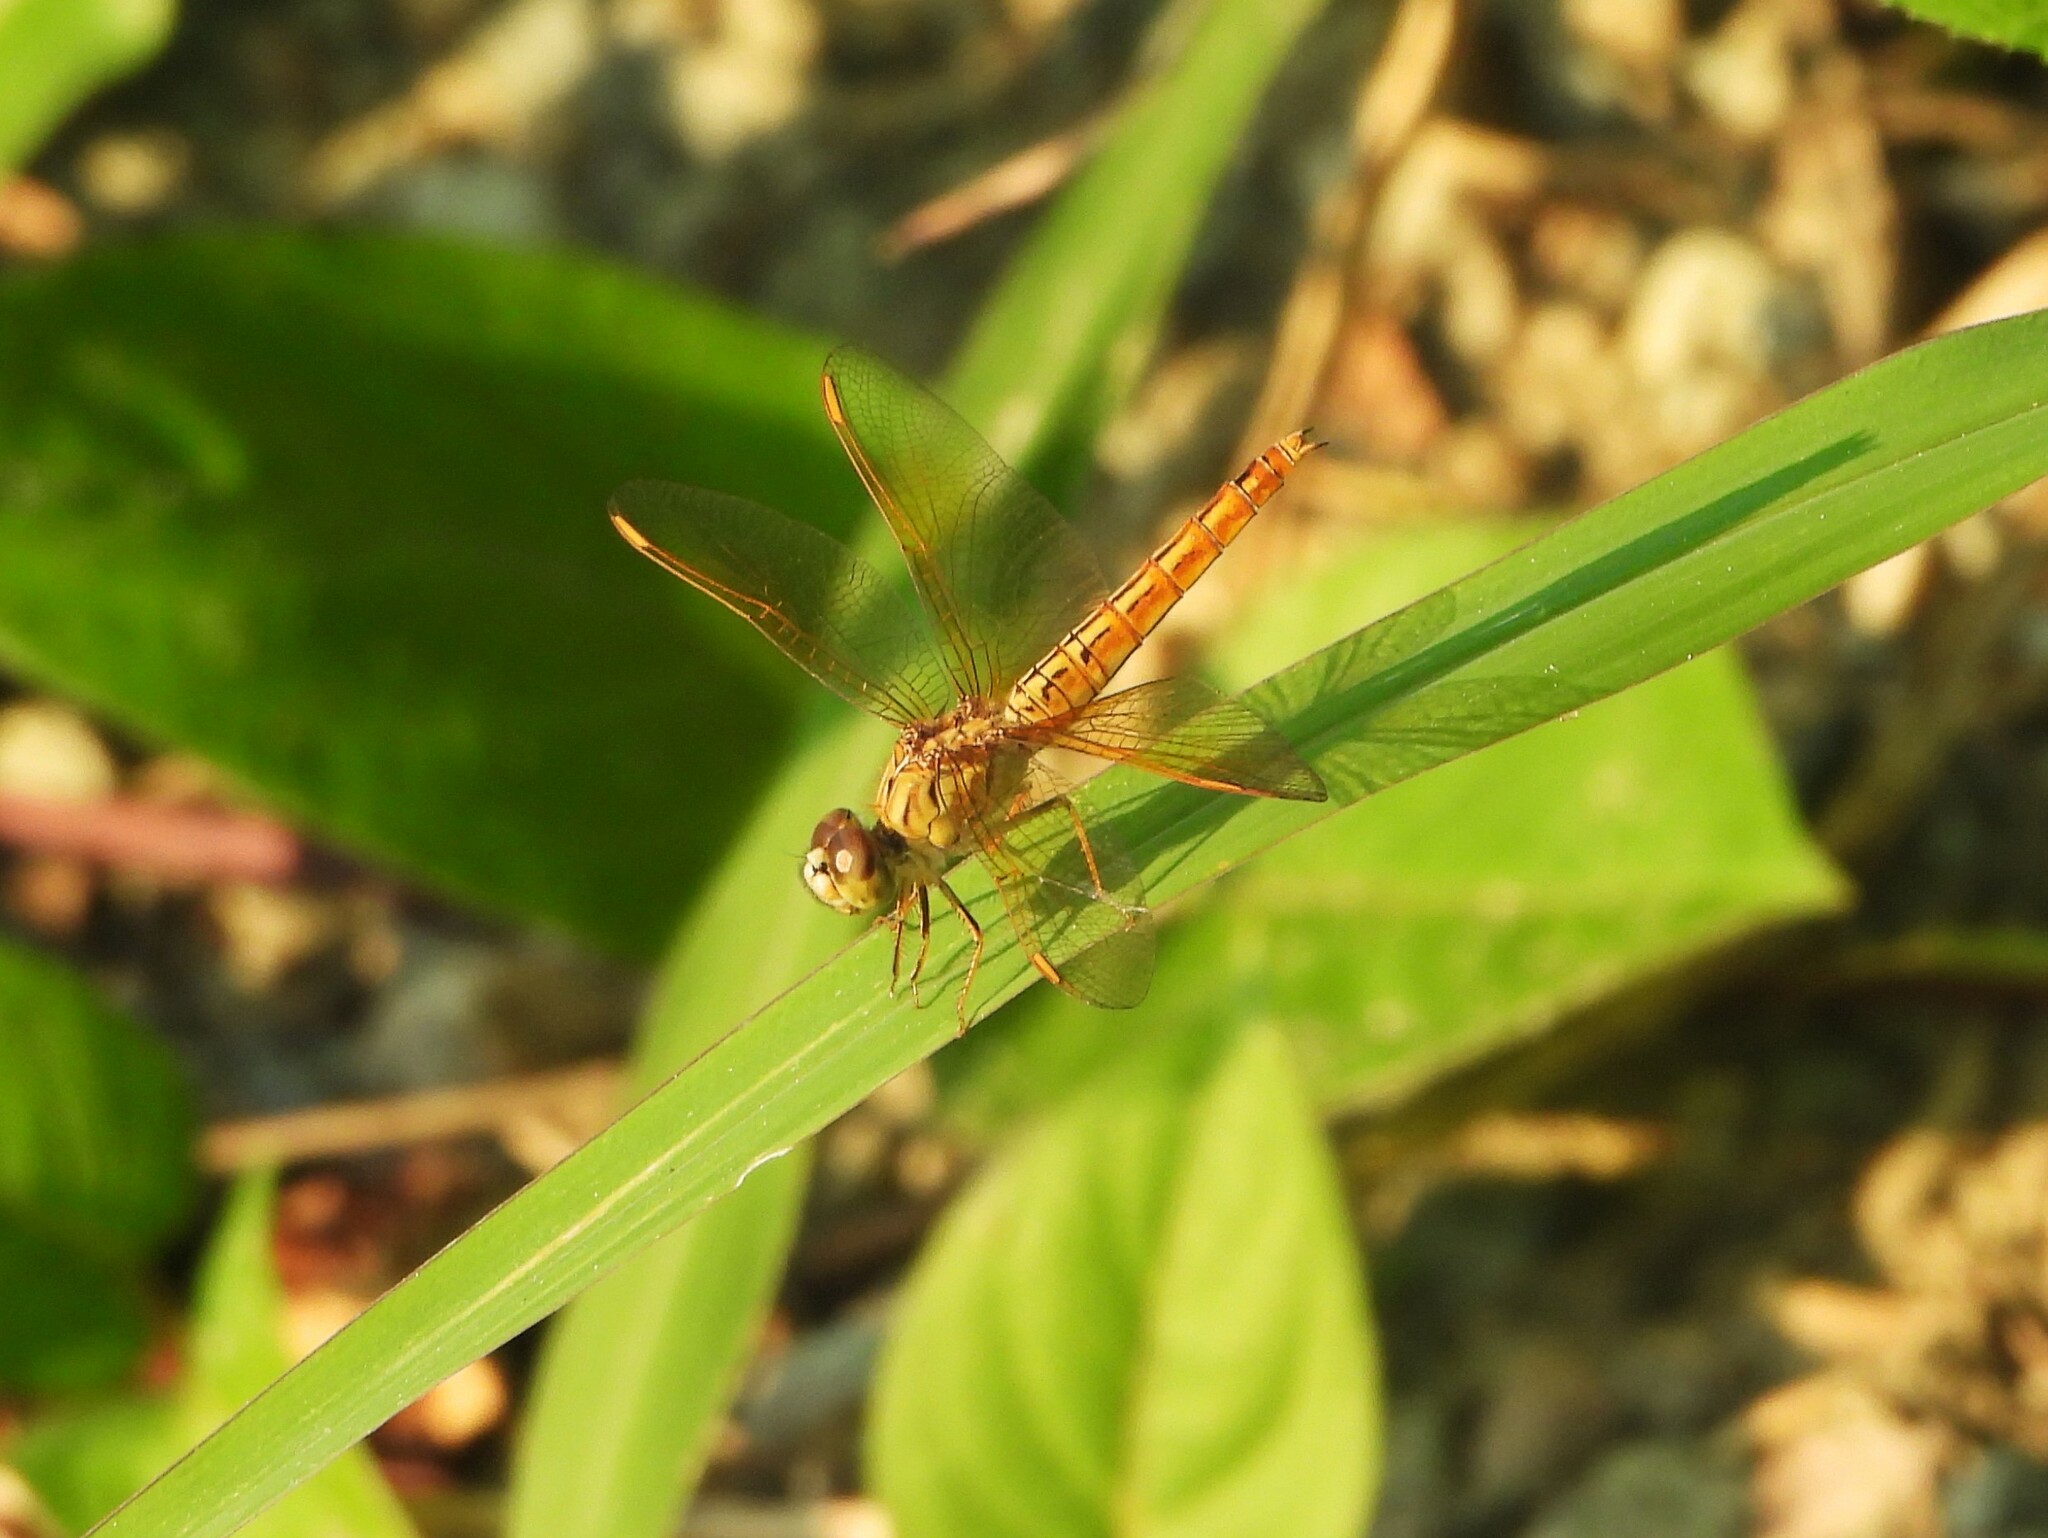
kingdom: Animalia
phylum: Arthropoda
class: Insecta
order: Odonata
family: Libellulidae
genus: Brachythemis
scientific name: Brachythemis contaminata
